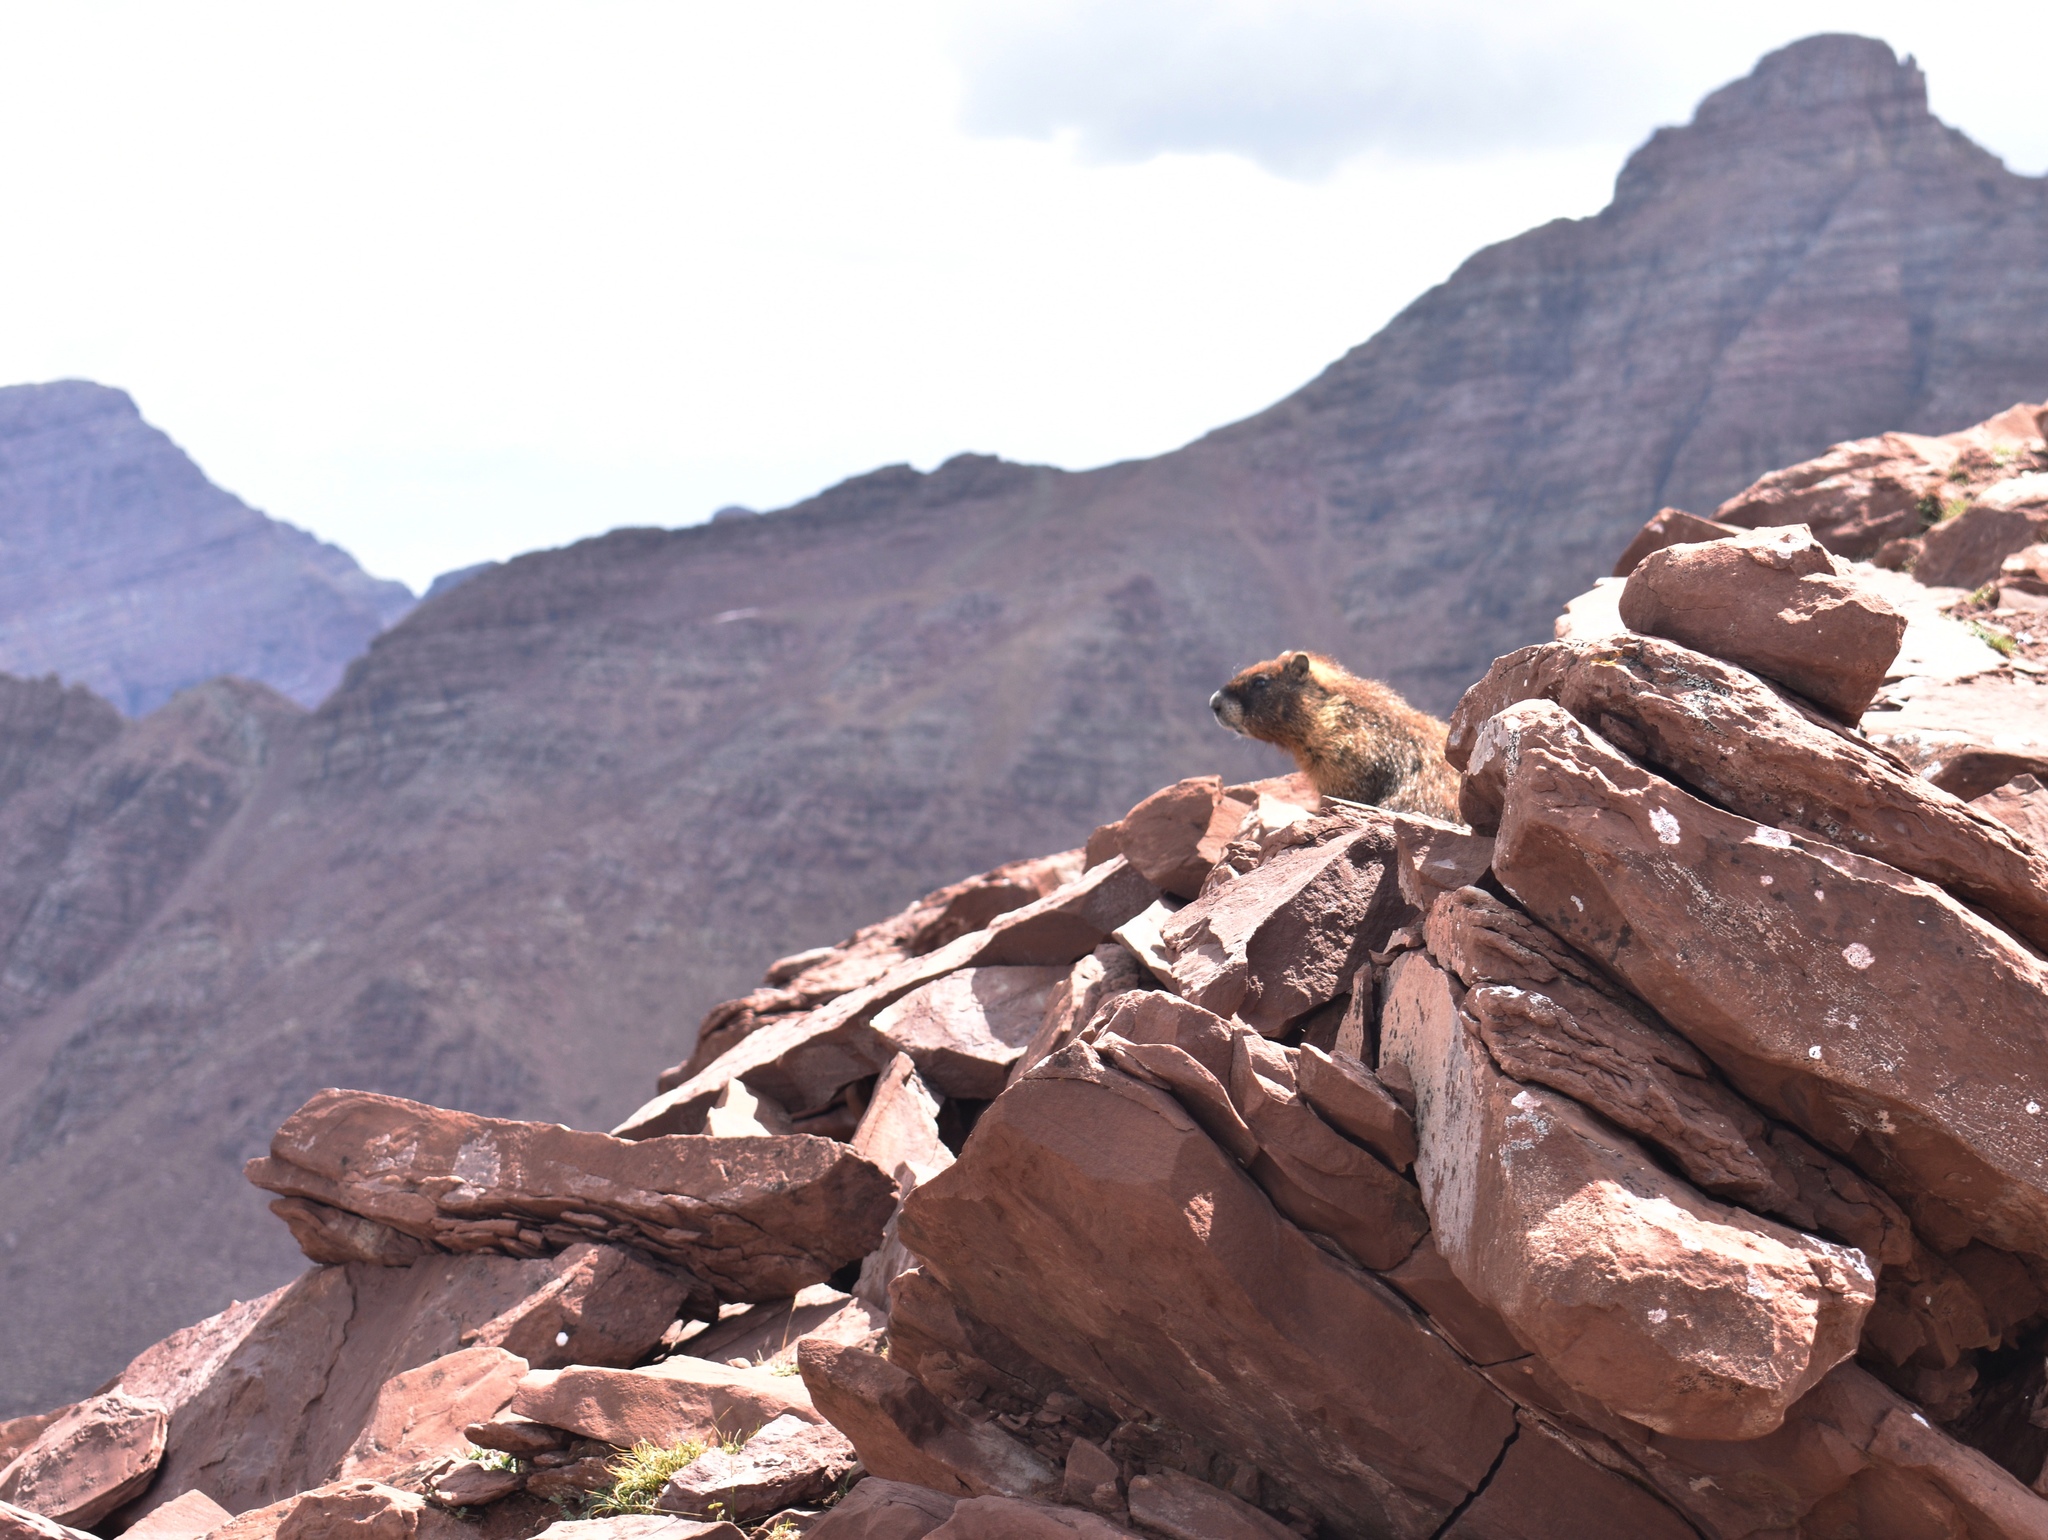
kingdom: Animalia
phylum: Chordata
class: Mammalia
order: Rodentia
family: Sciuridae
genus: Marmota
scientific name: Marmota flaviventris
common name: Yellow-bellied marmot
